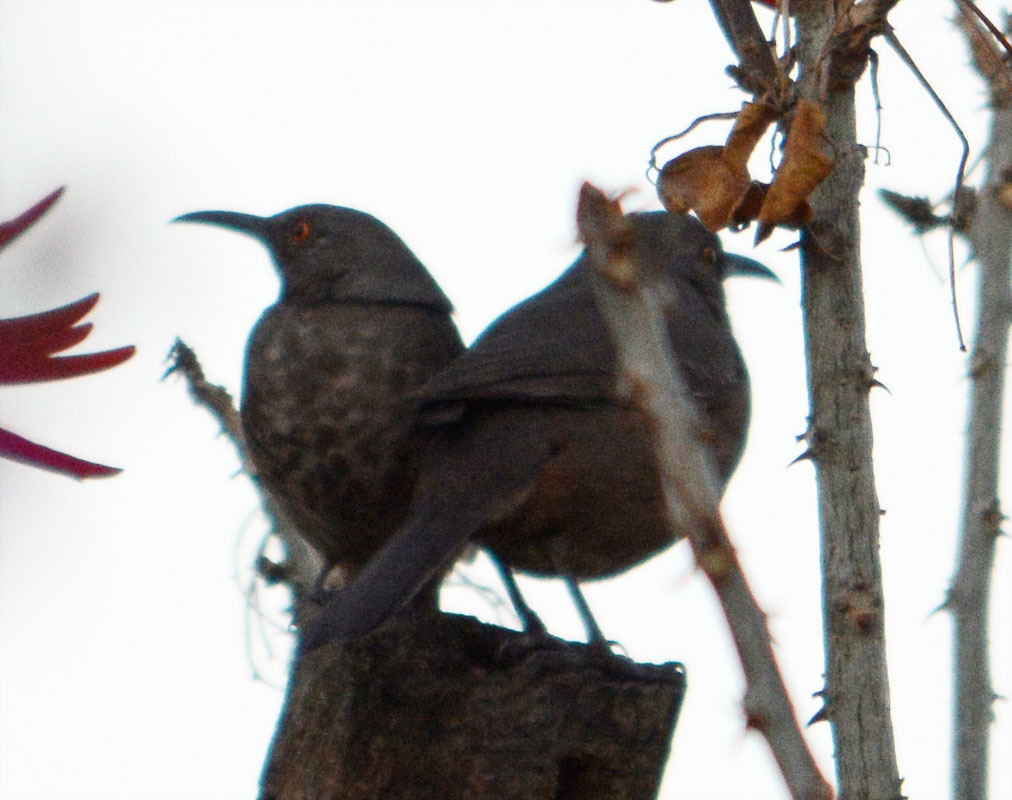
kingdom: Animalia
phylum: Chordata
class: Aves
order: Passeriformes
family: Mimidae
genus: Toxostoma
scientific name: Toxostoma curvirostre
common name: Curve-billed thrasher
